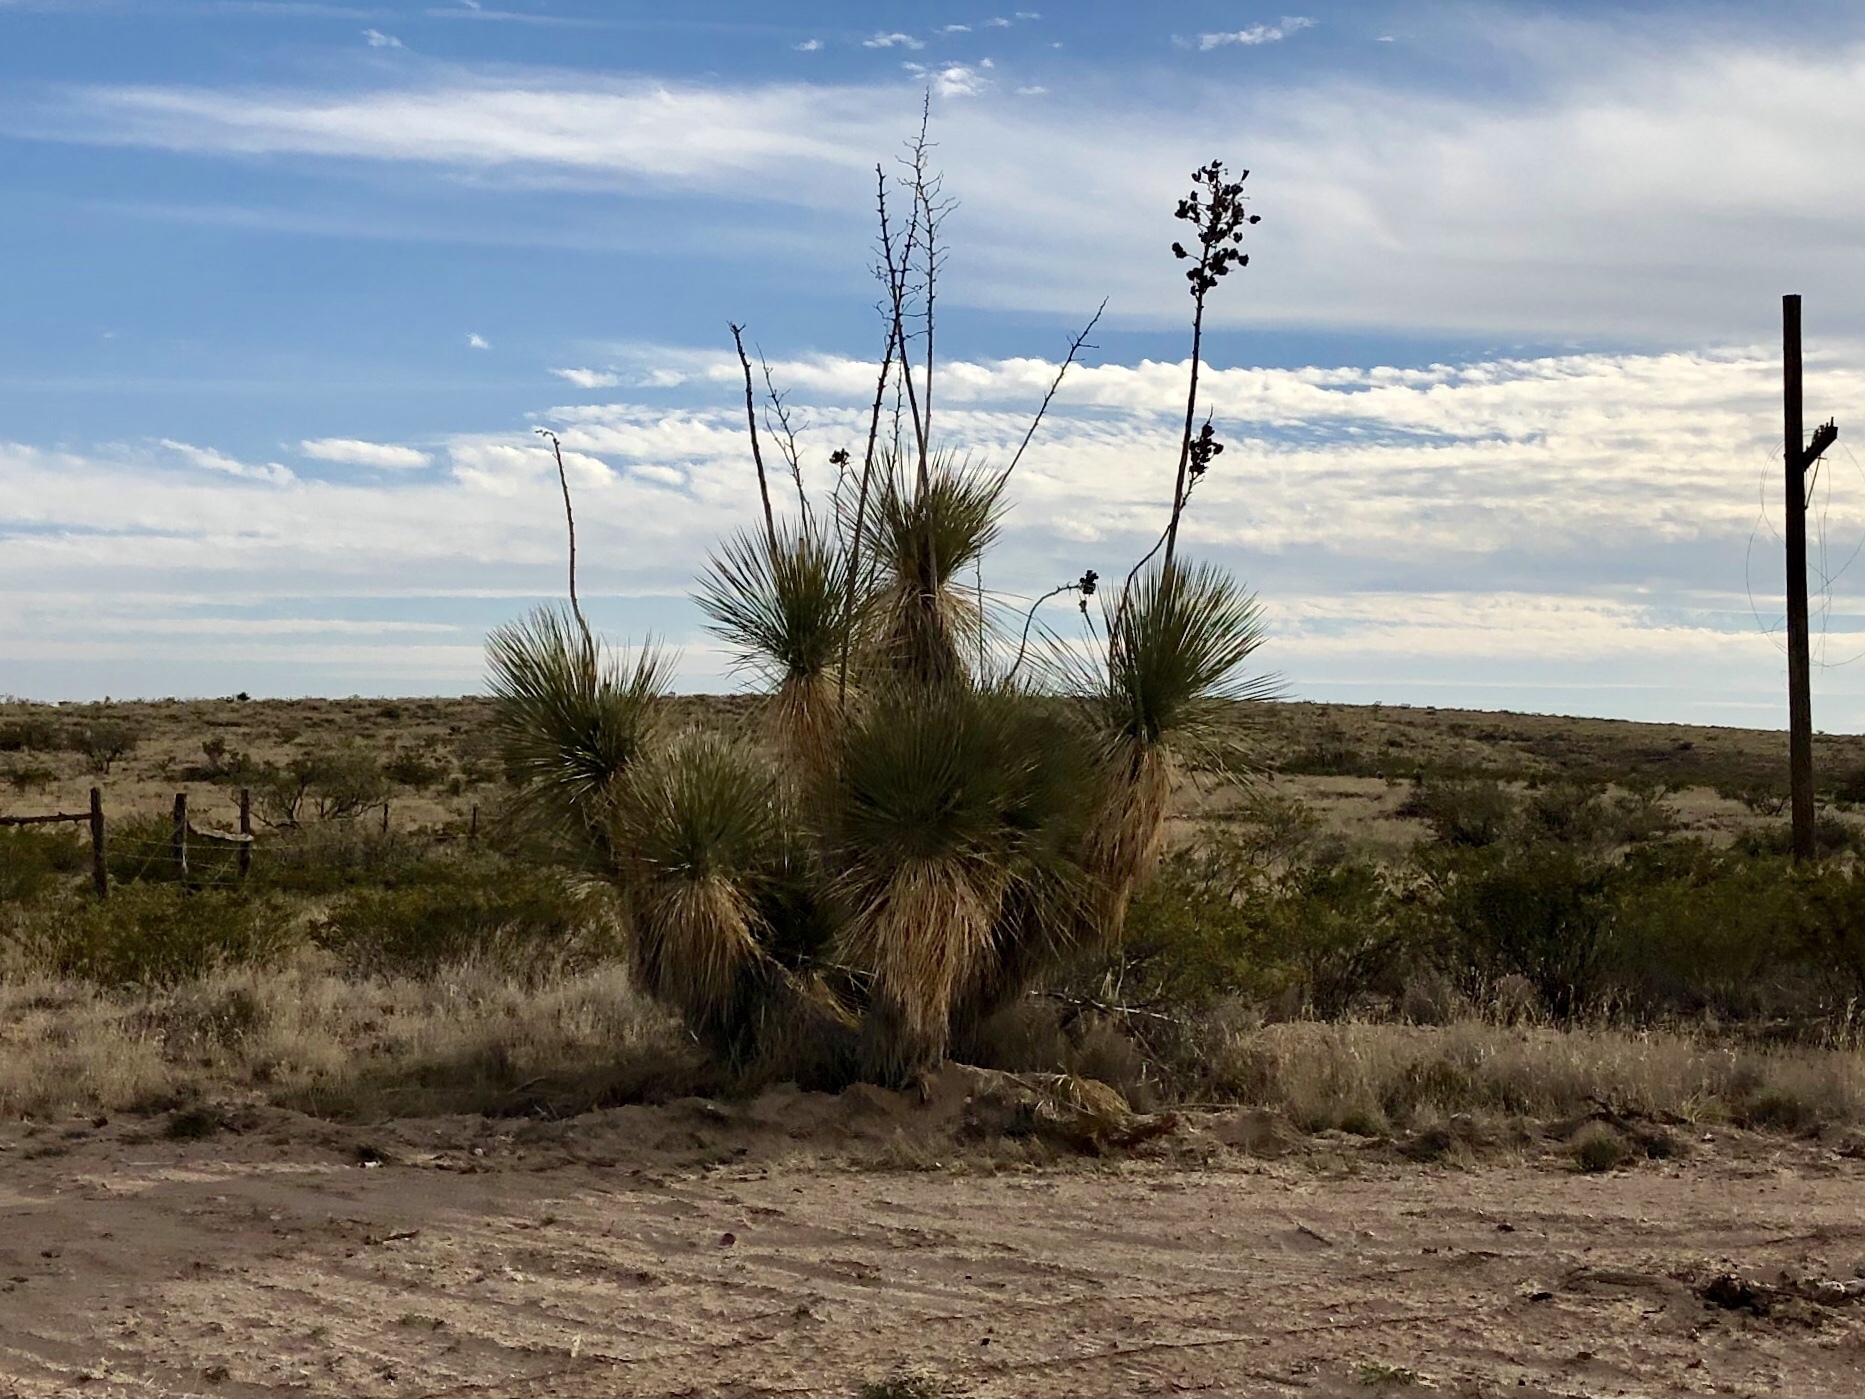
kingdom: Plantae
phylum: Tracheophyta
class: Liliopsida
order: Asparagales
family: Asparagaceae
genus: Yucca
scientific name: Yucca elata
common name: Palmella
